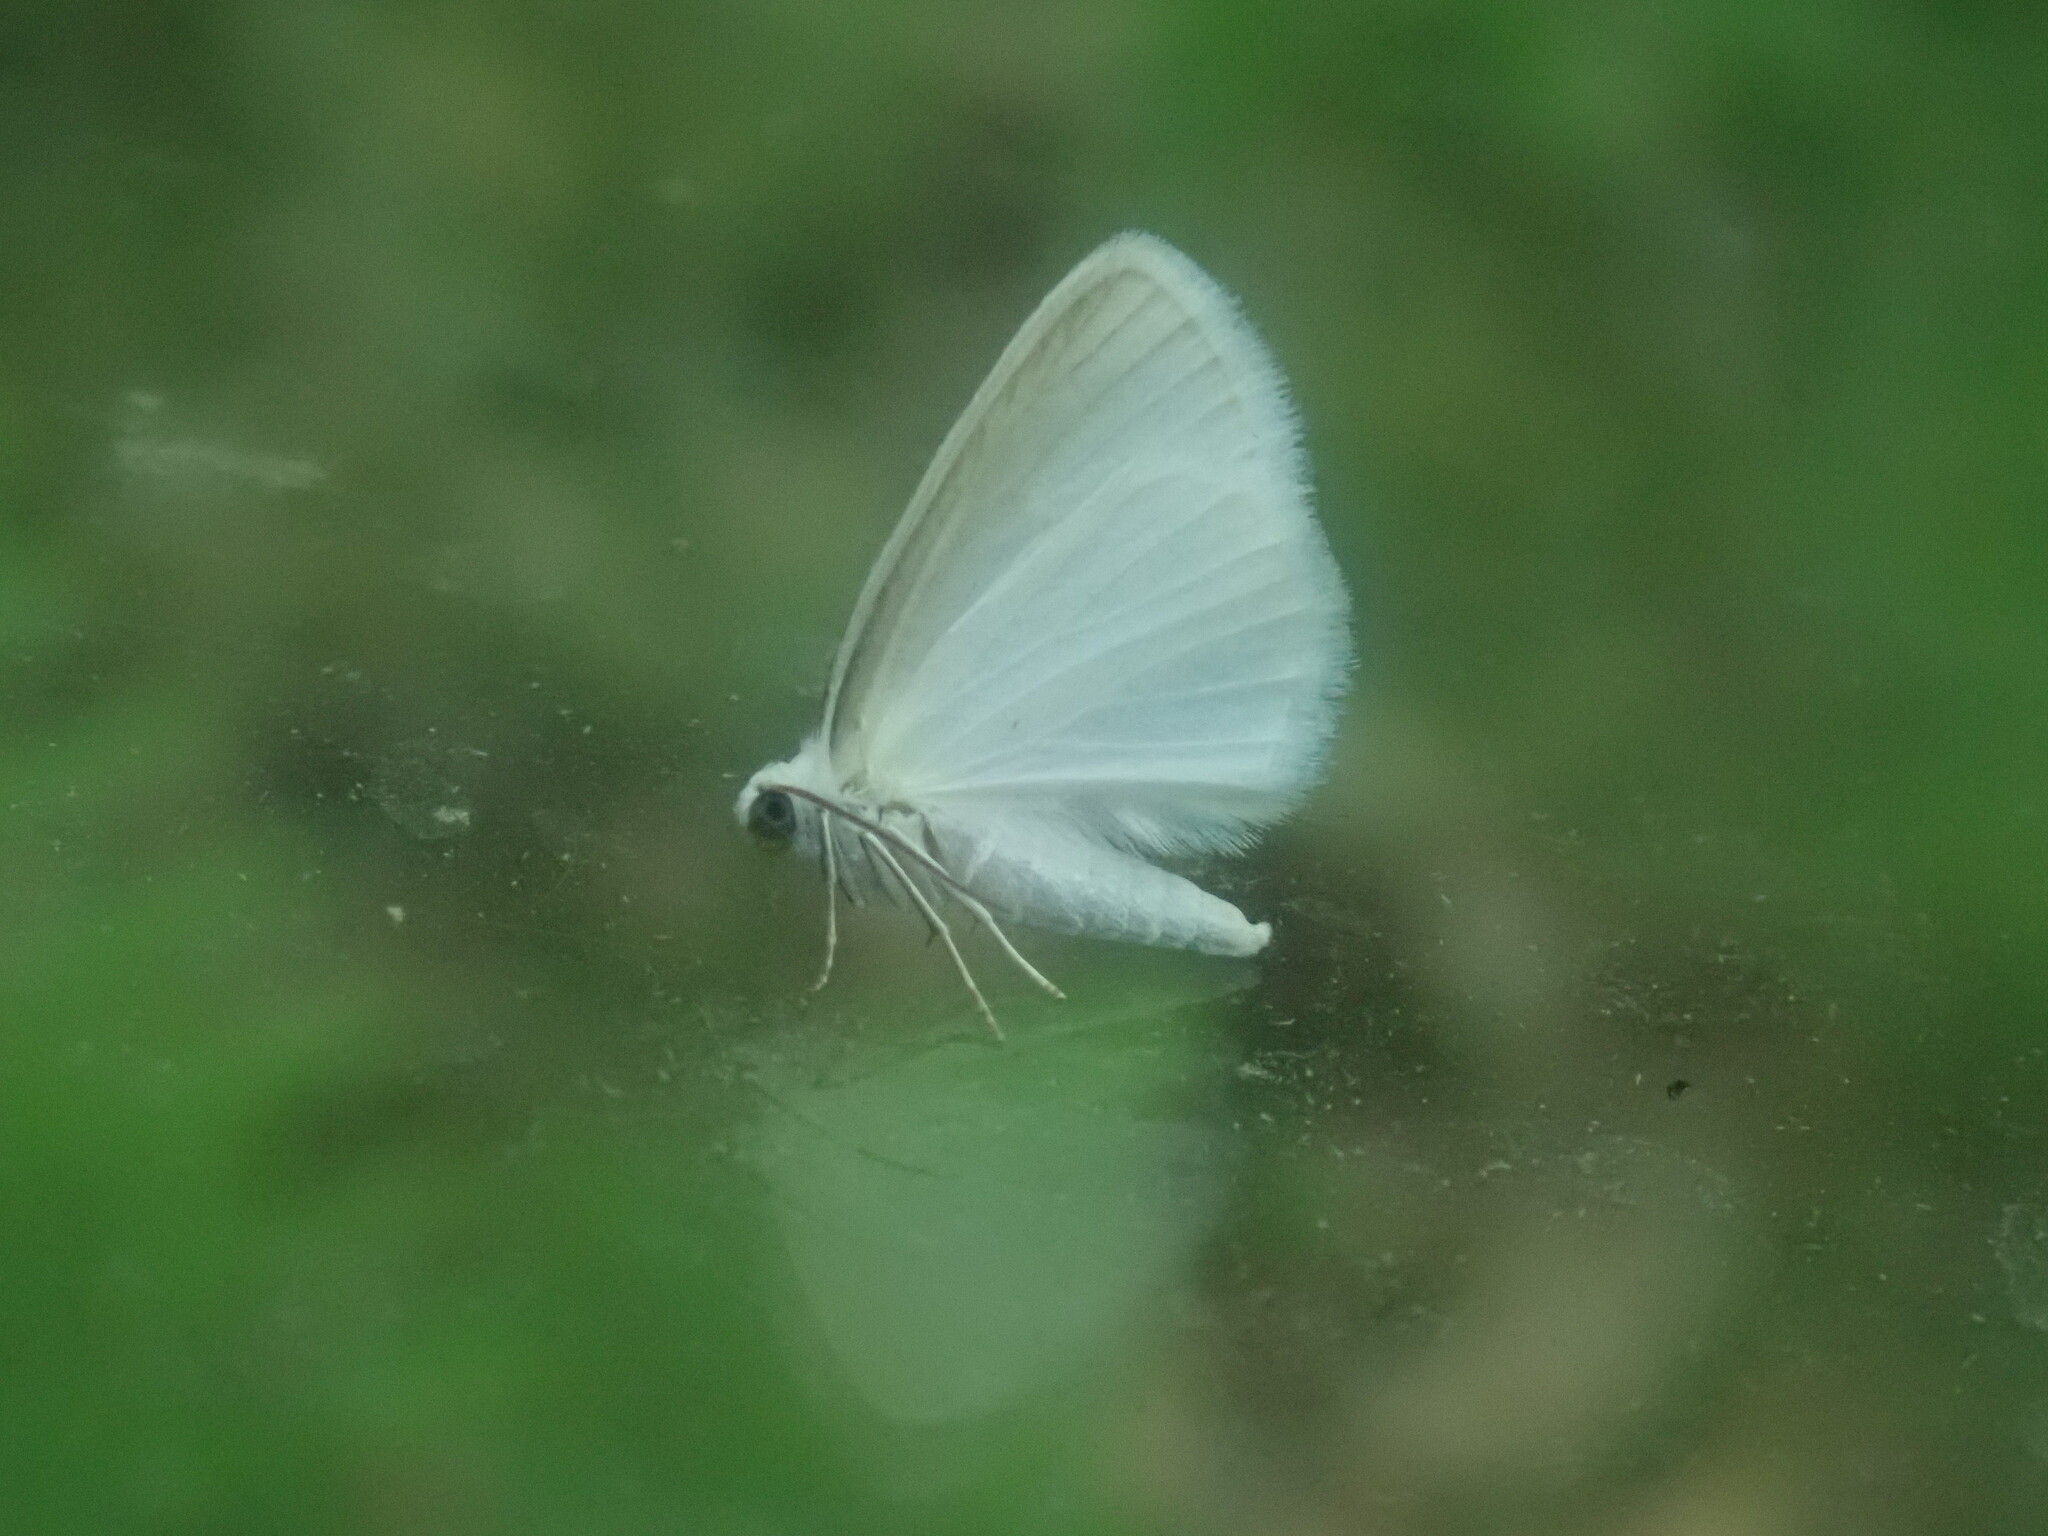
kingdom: Animalia
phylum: Arthropoda
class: Insecta
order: Lepidoptera
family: Geometridae
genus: Lomographa
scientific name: Lomographa vestaliata
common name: White spring moth
